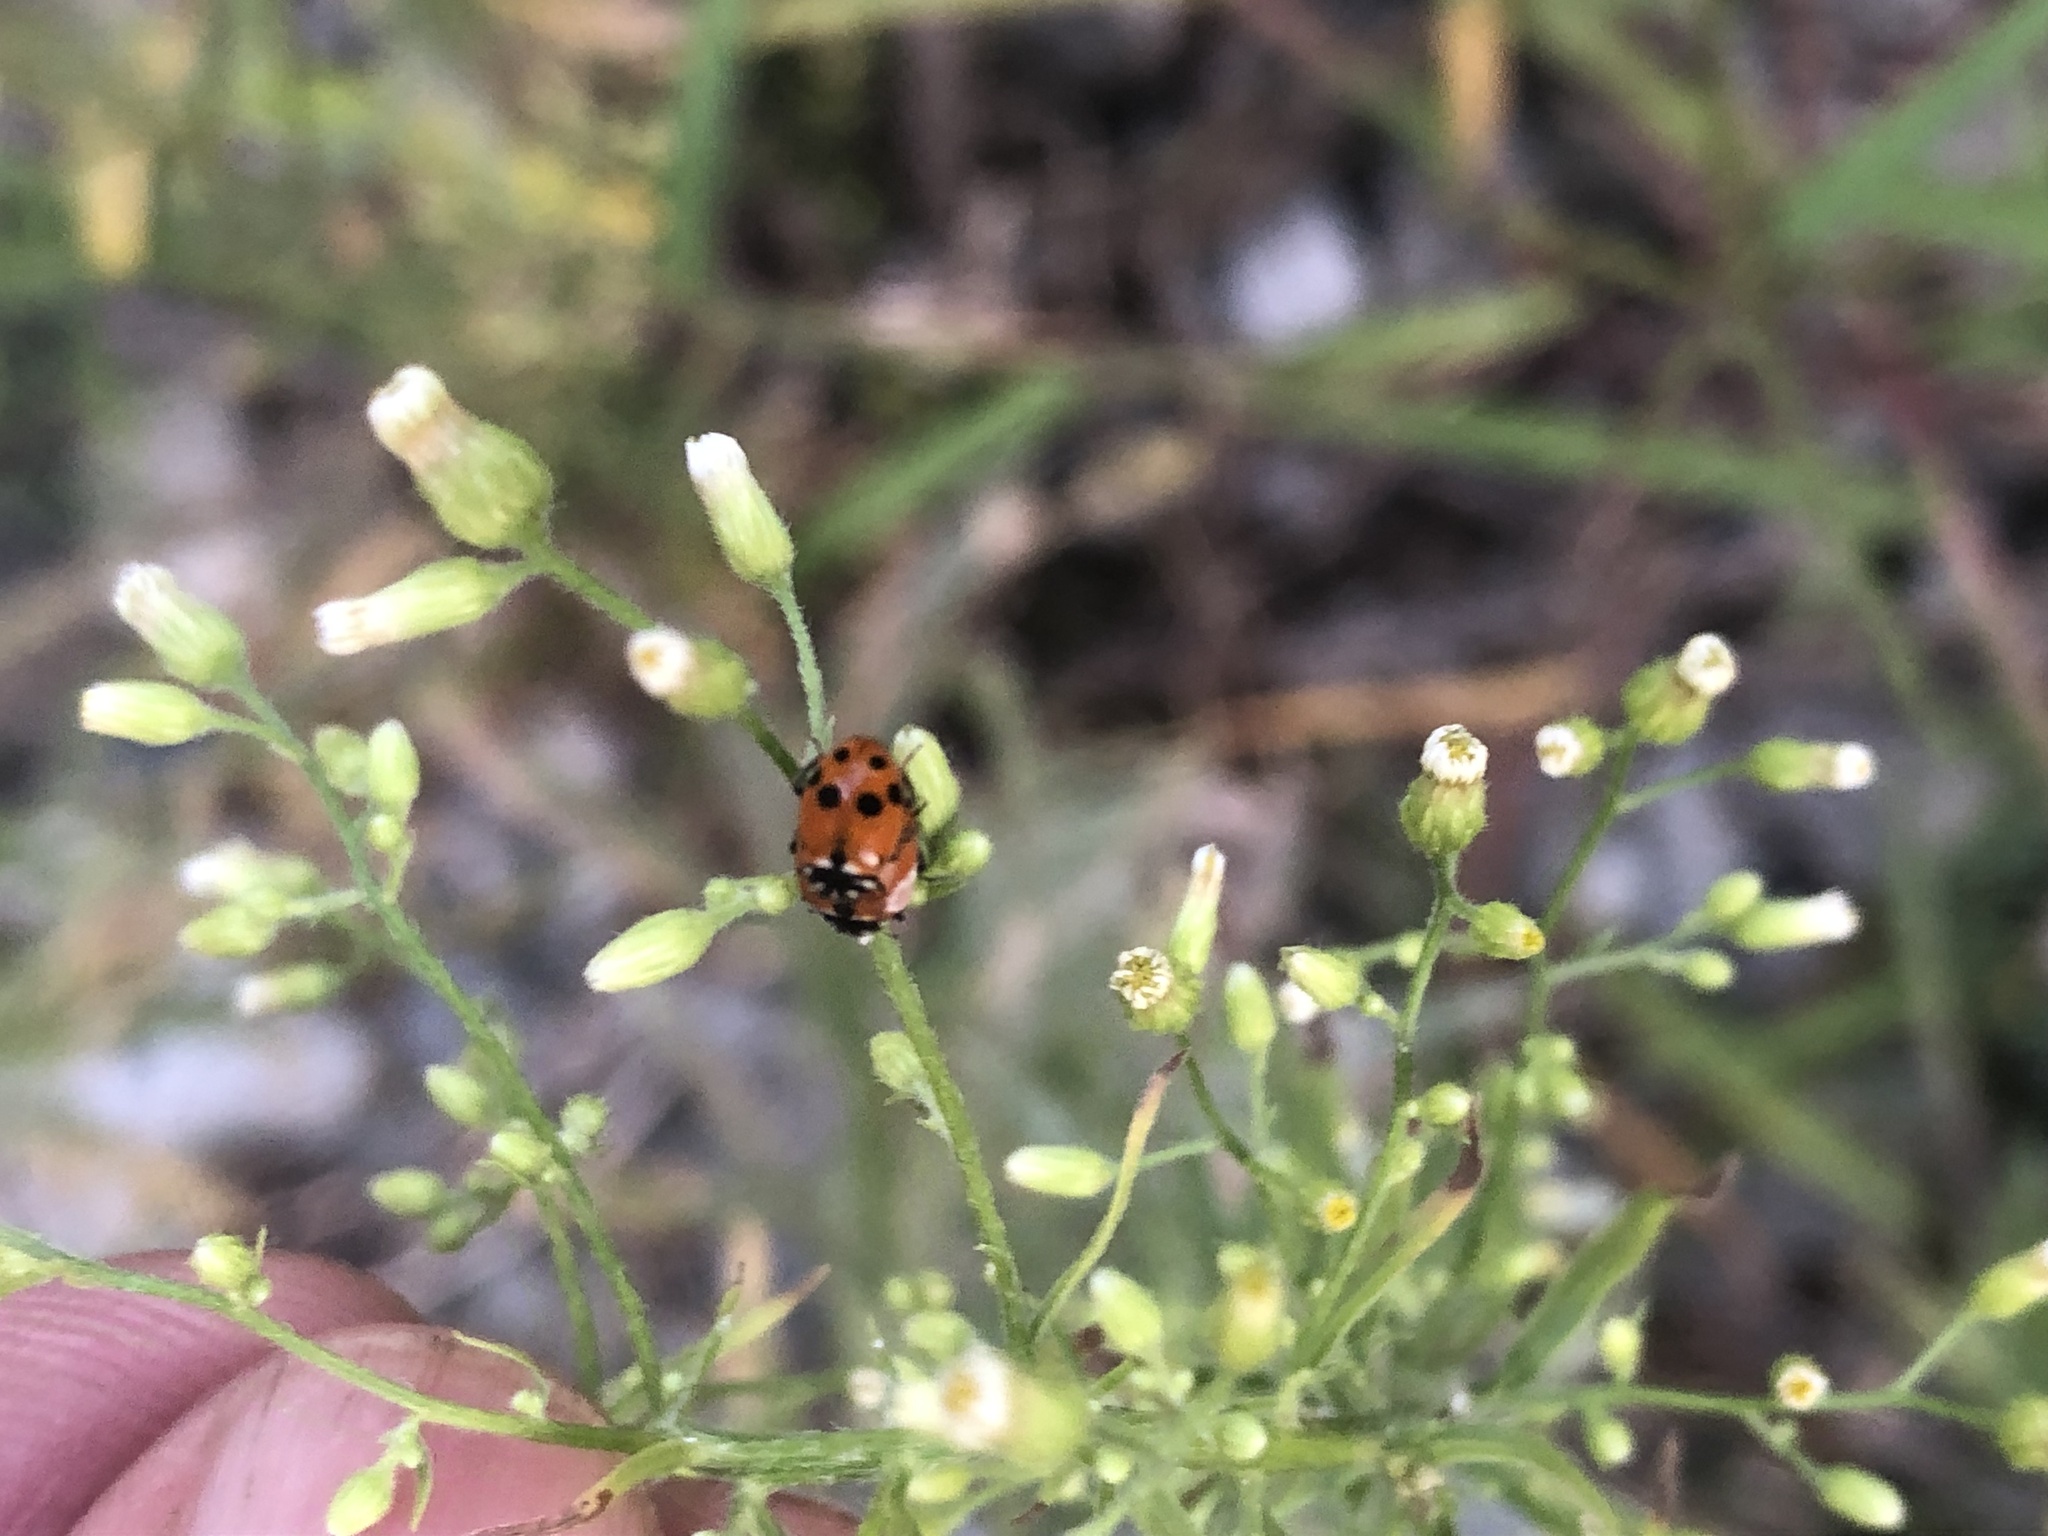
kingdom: Animalia
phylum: Arthropoda
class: Insecta
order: Coleoptera
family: Coccinellidae
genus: Hippodamia
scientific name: Hippodamia variegata
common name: Ladybird beetle
